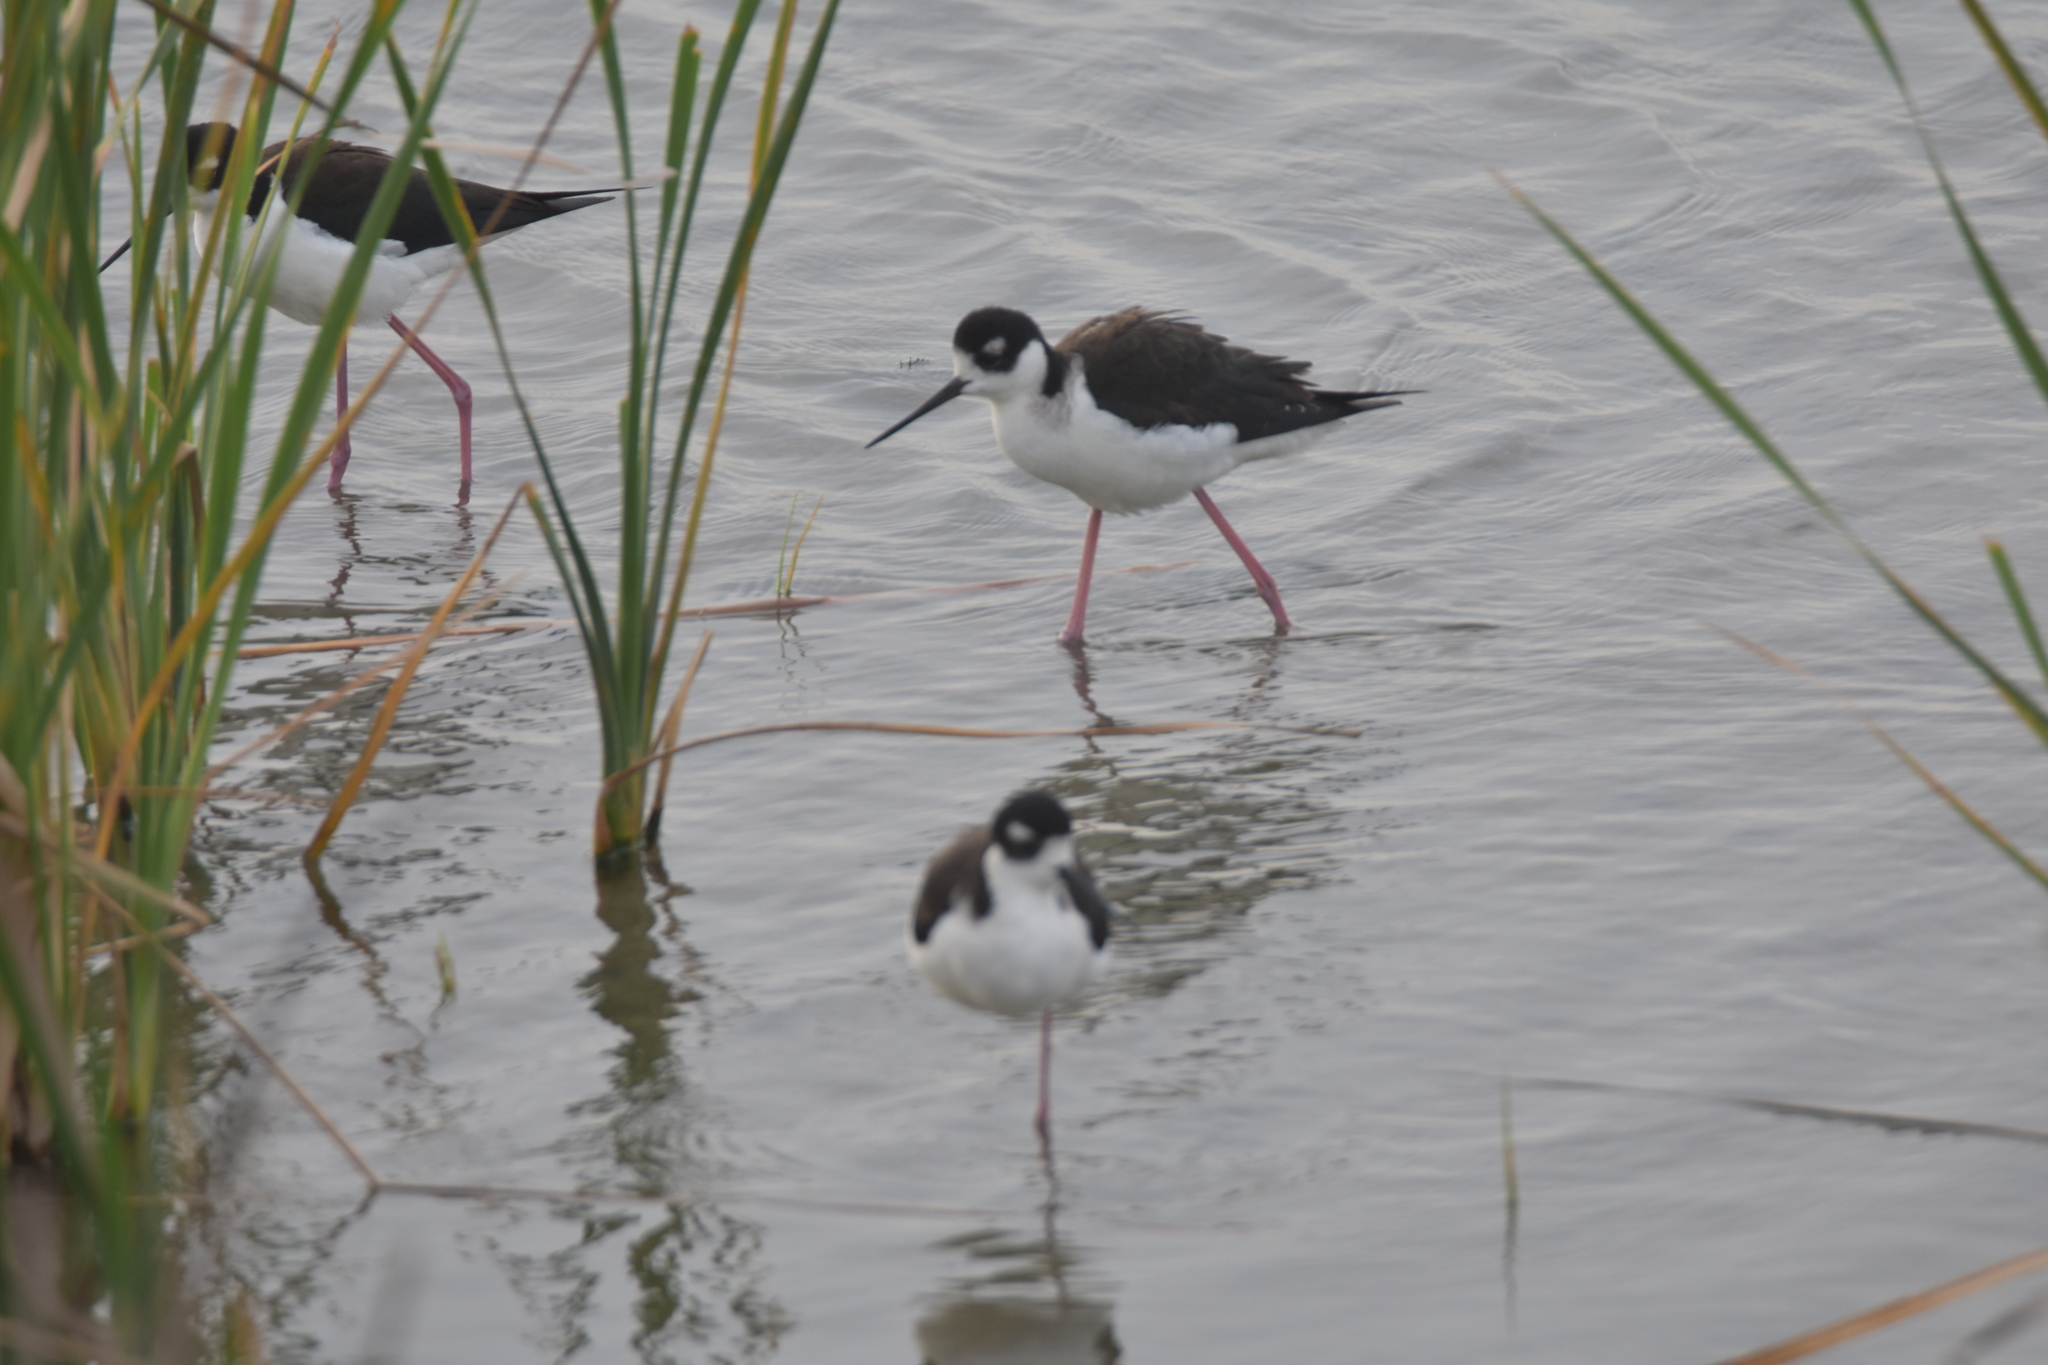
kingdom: Animalia
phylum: Chordata
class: Aves
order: Charadriiformes
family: Recurvirostridae
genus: Himantopus
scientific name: Himantopus mexicanus
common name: Black-necked stilt
